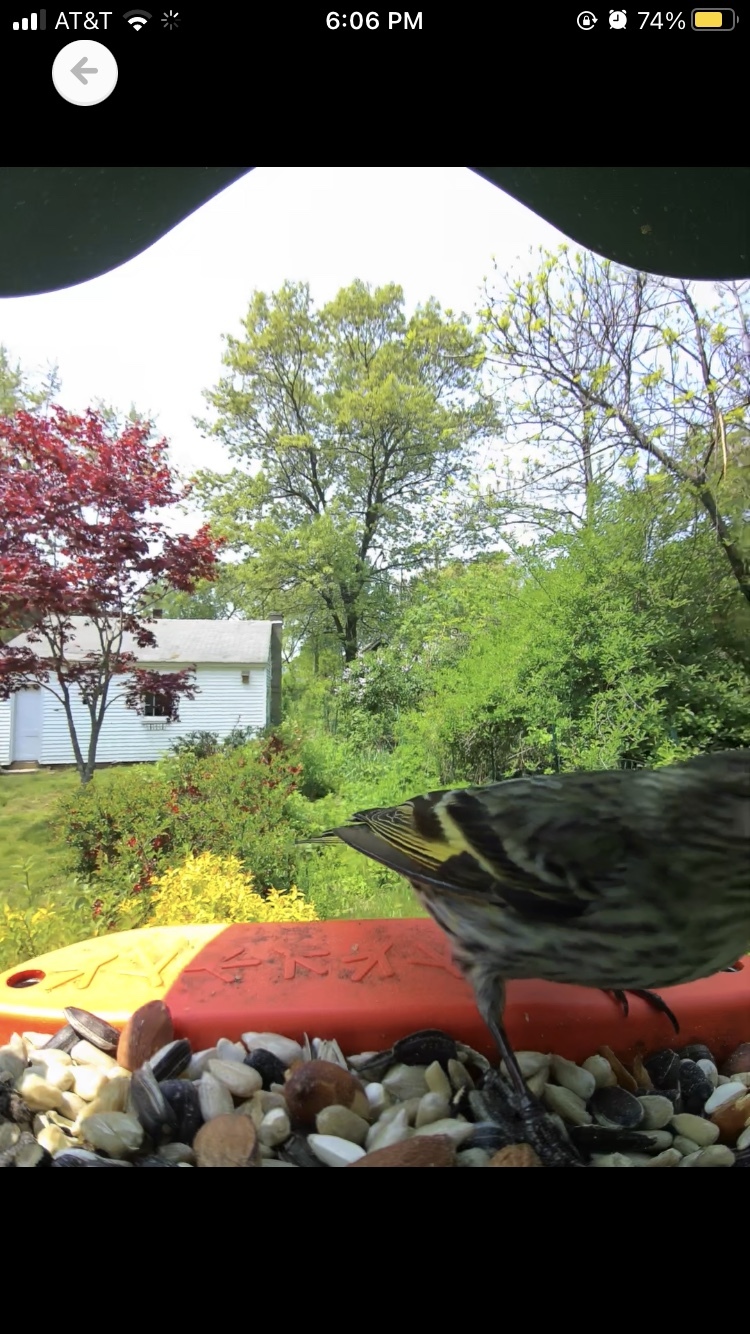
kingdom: Animalia
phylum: Chordata
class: Aves
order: Passeriformes
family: Fringillidae
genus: Spinus
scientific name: Spinus pinus
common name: Pine siskin
